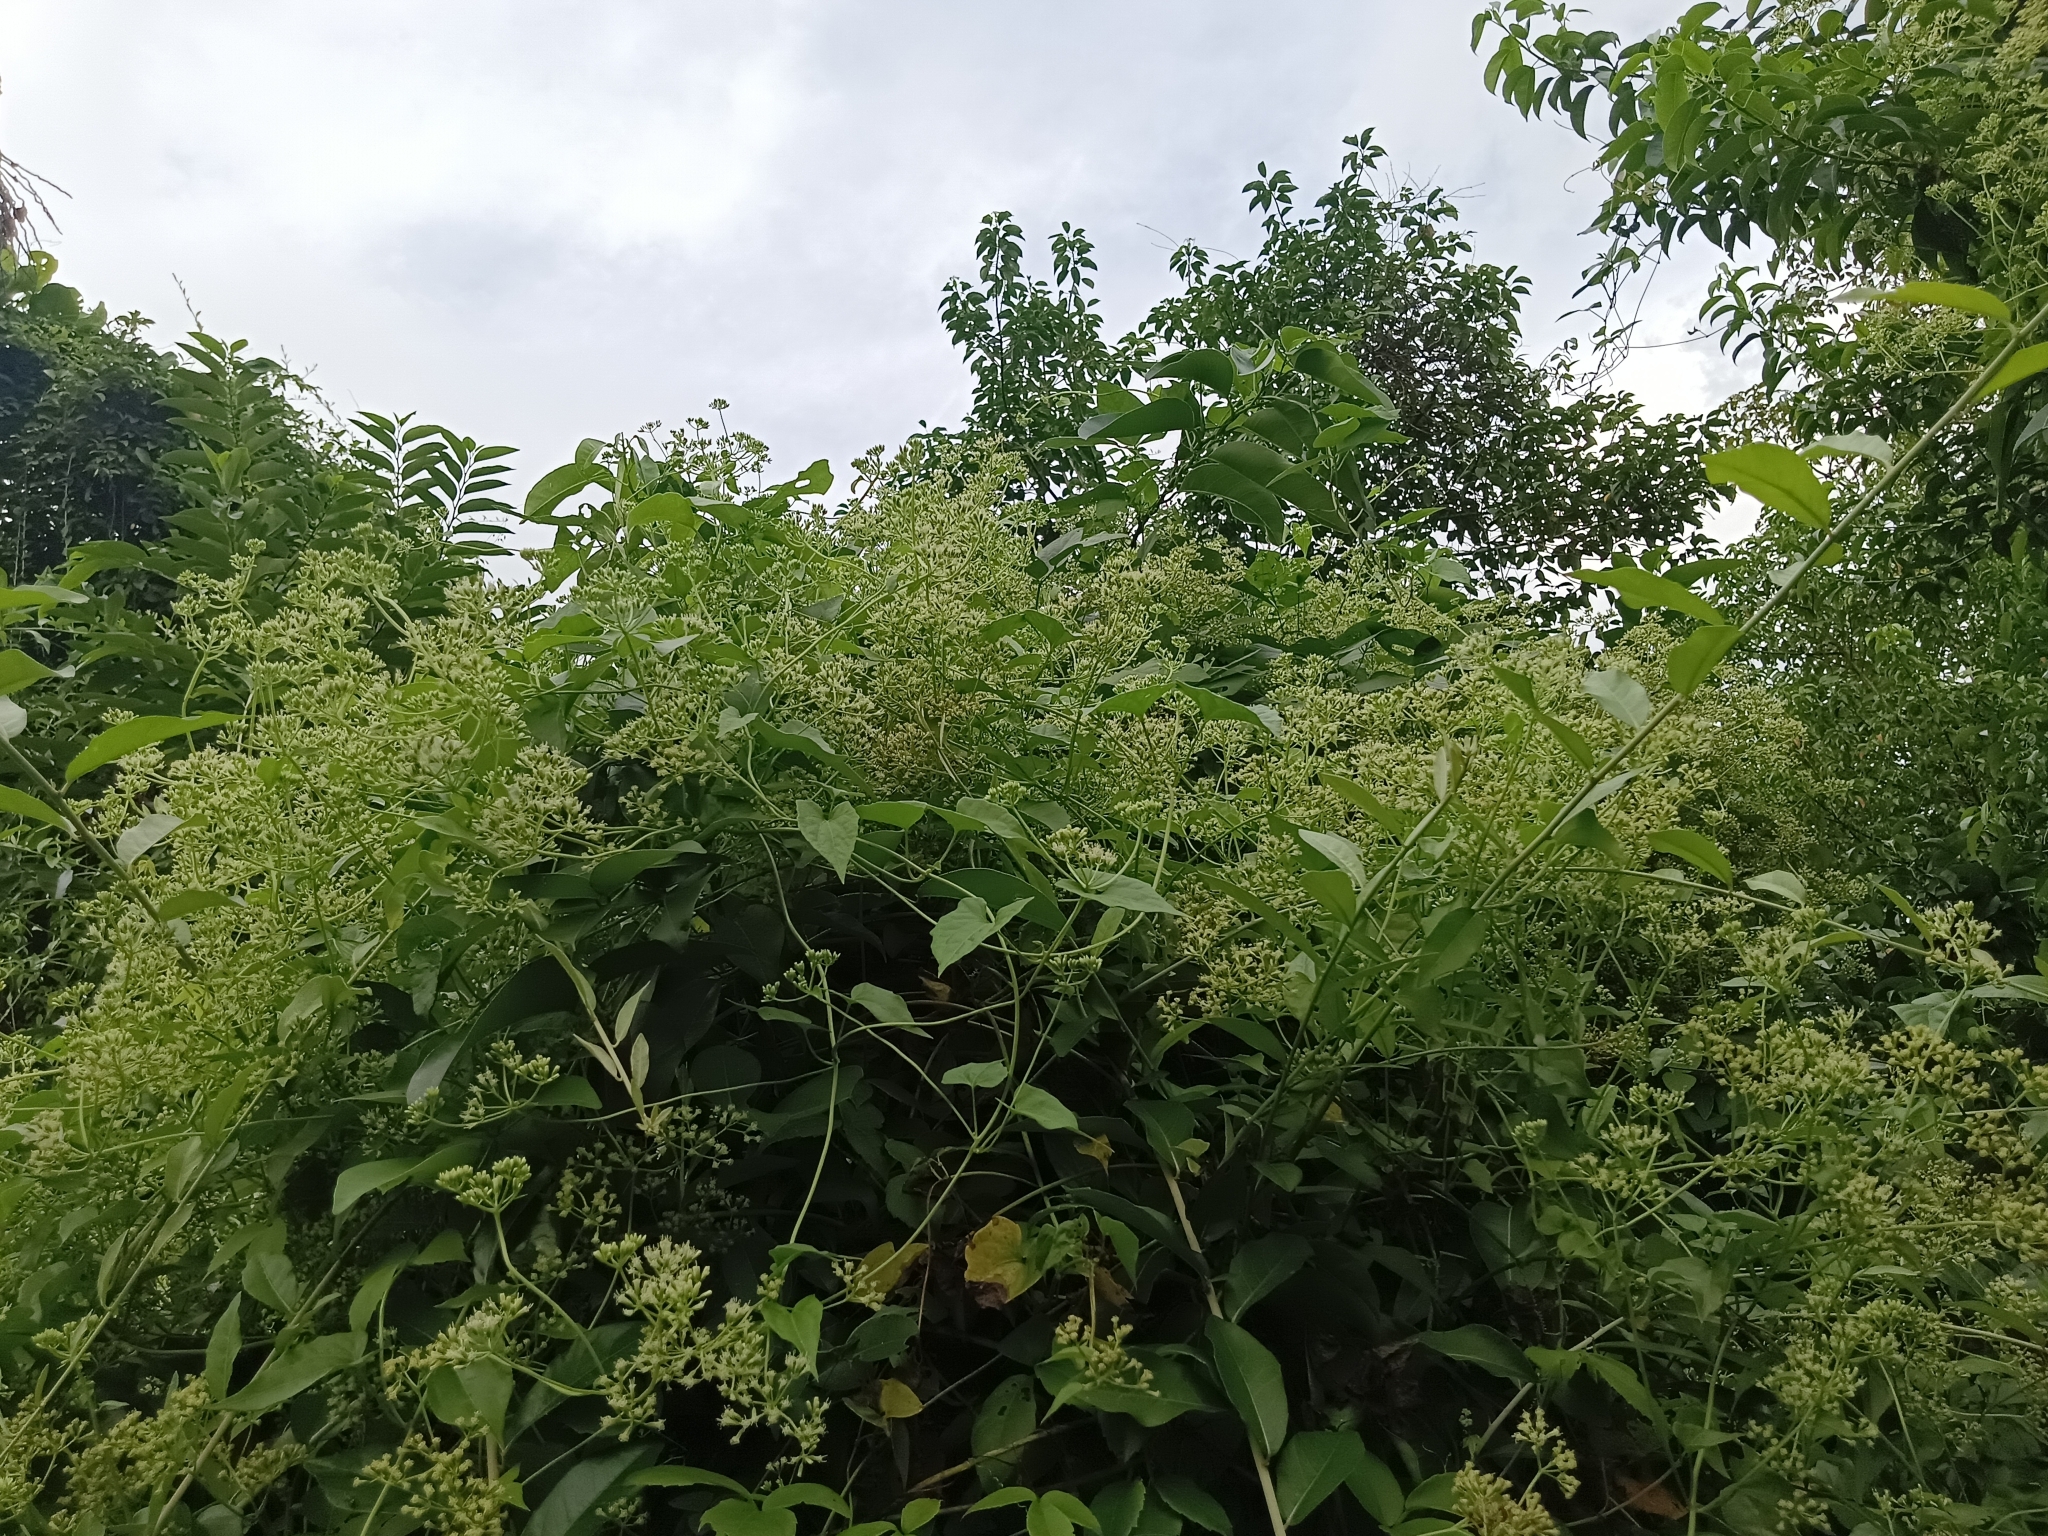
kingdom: Plantae
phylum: Tracheophyta
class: Magnoliopsida
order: Asterales
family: Asteraceae
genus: Mikania
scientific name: Mikania micrantha
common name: Mile-a-minute
